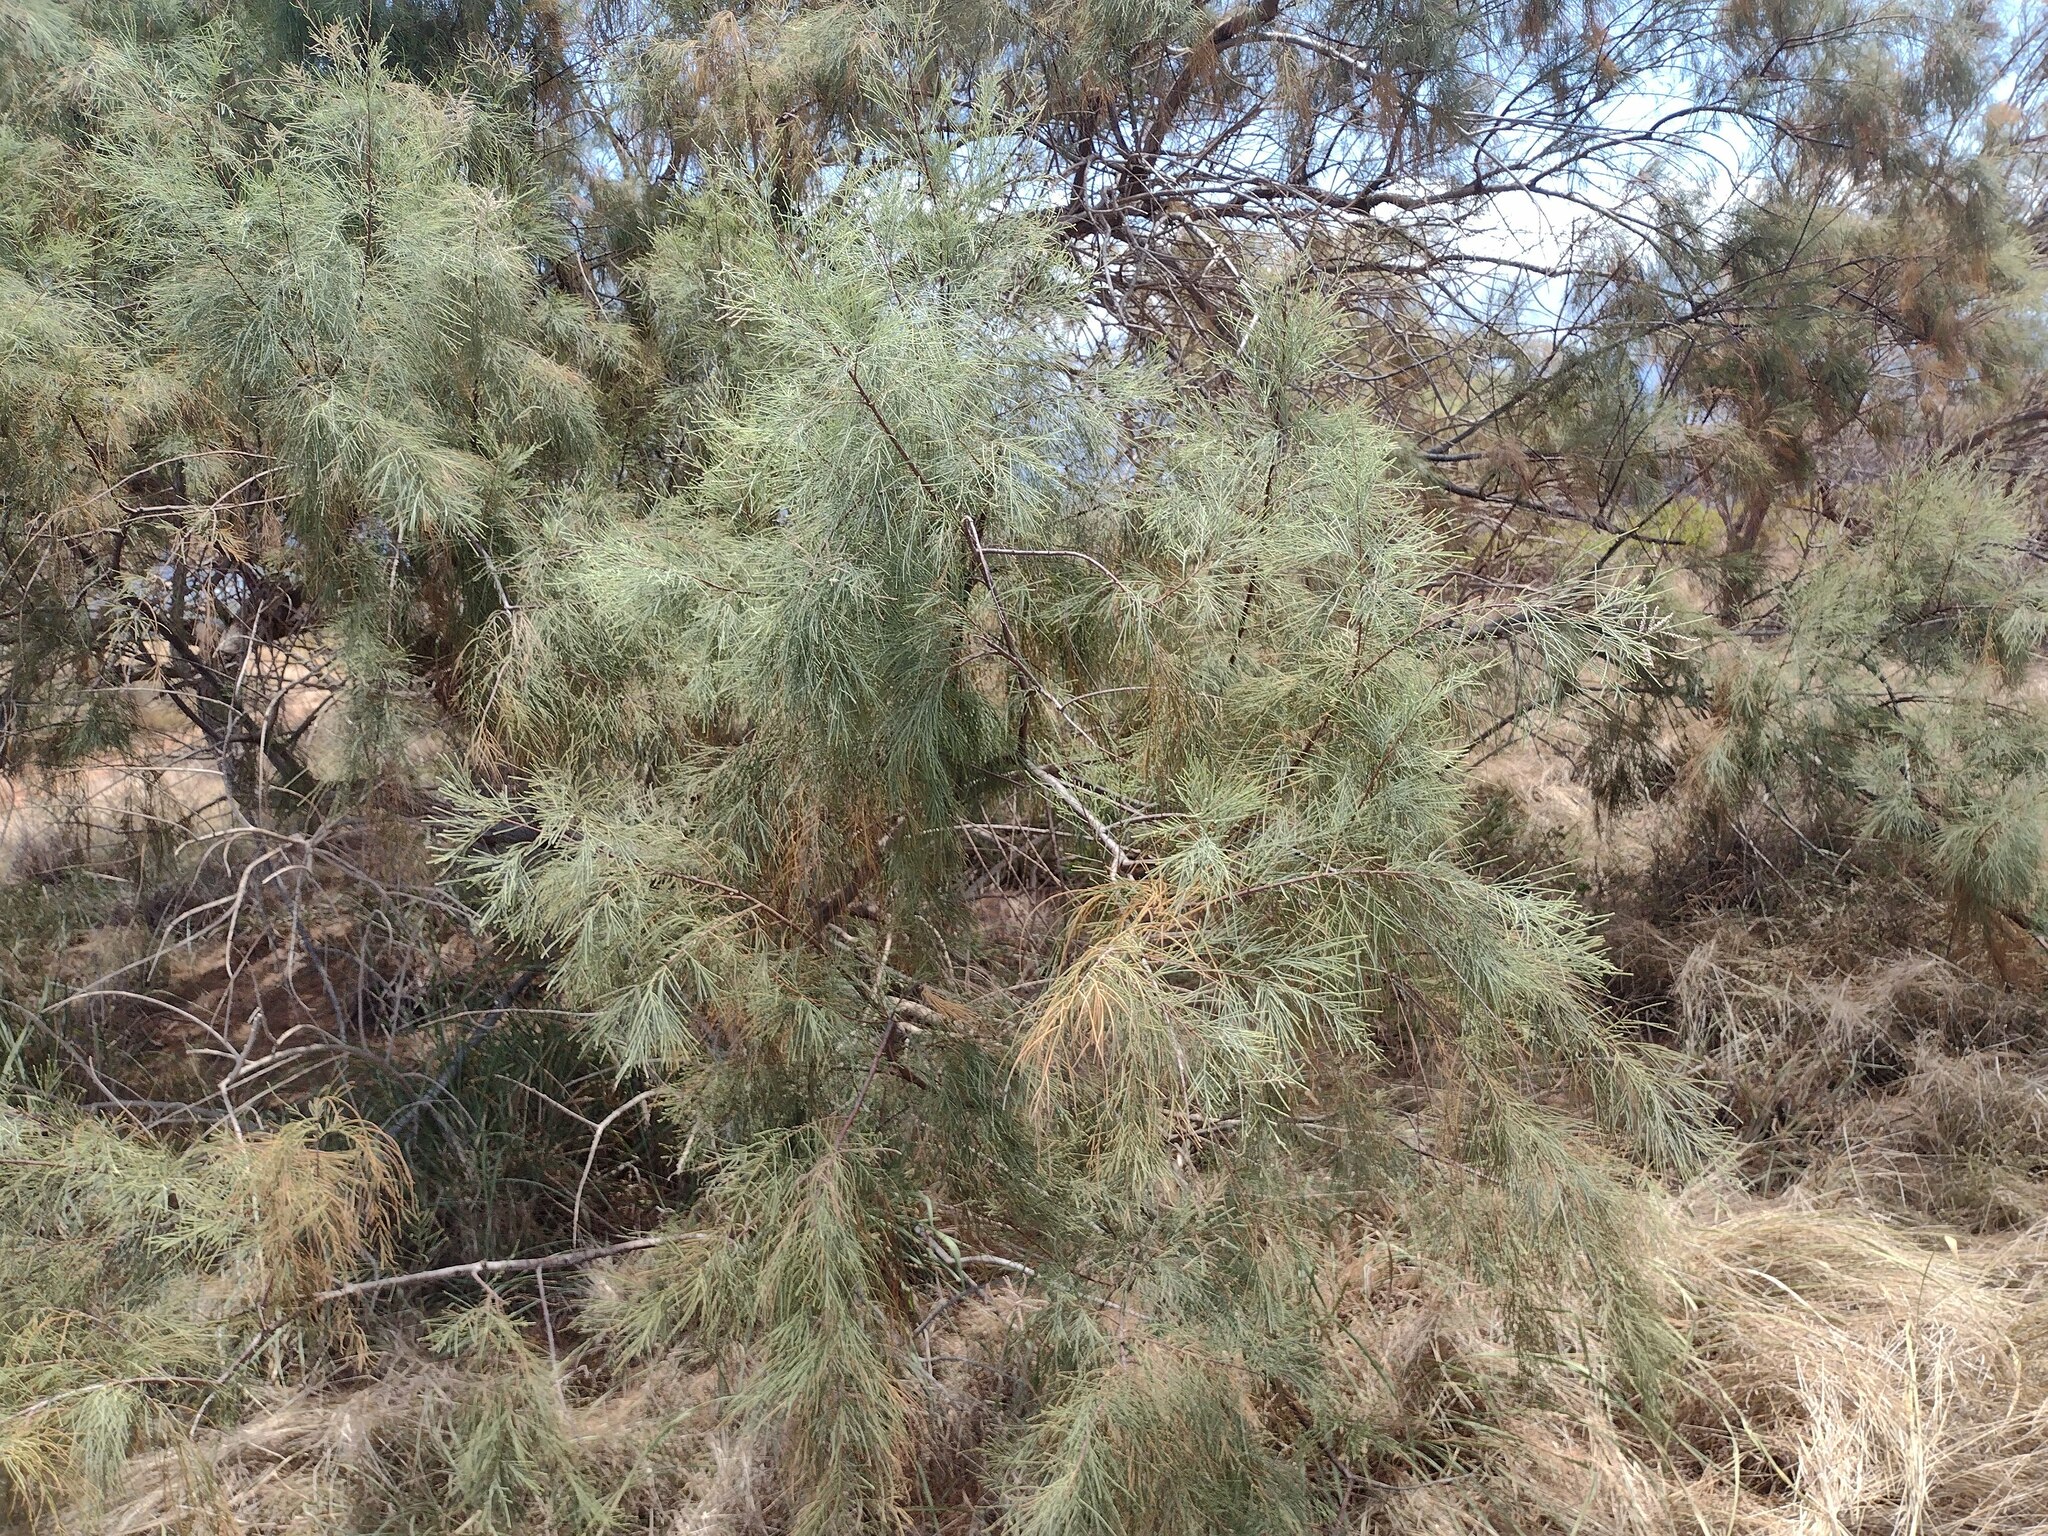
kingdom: Plantae
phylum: Tracheophyta
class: Magnoliopsida
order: Caryophyllales
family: Tamaricaceae
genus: Tamarix
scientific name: Tamarix aphylla
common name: Athel tamarisk
